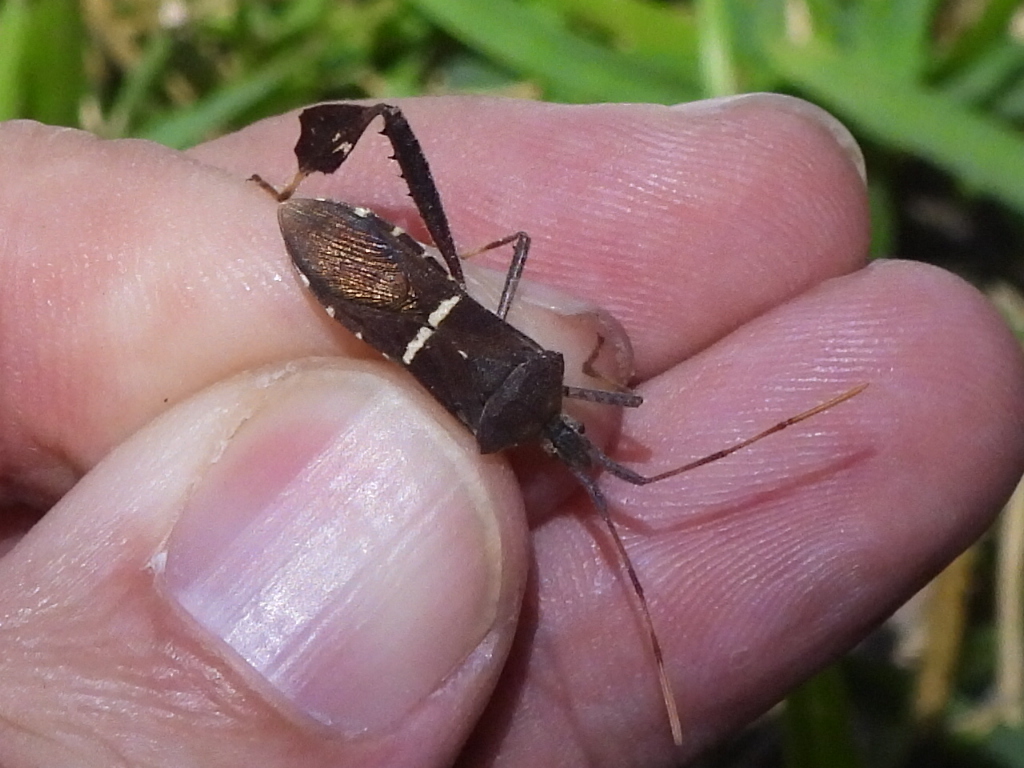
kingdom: Animalia
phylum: Arthropoda
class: Insecta
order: Hemiptera
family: Coreidae
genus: Leptoglossus
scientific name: Leptoglossus phyllopus
